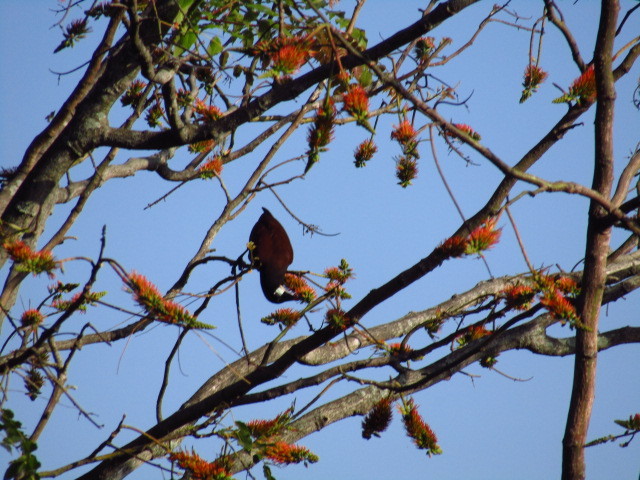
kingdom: Animalia
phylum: Chordata
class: Aves
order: Passeriformes
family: Icteridae
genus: Psarocolius
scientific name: Psarocolius montezuma
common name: Montezuma oropendola
